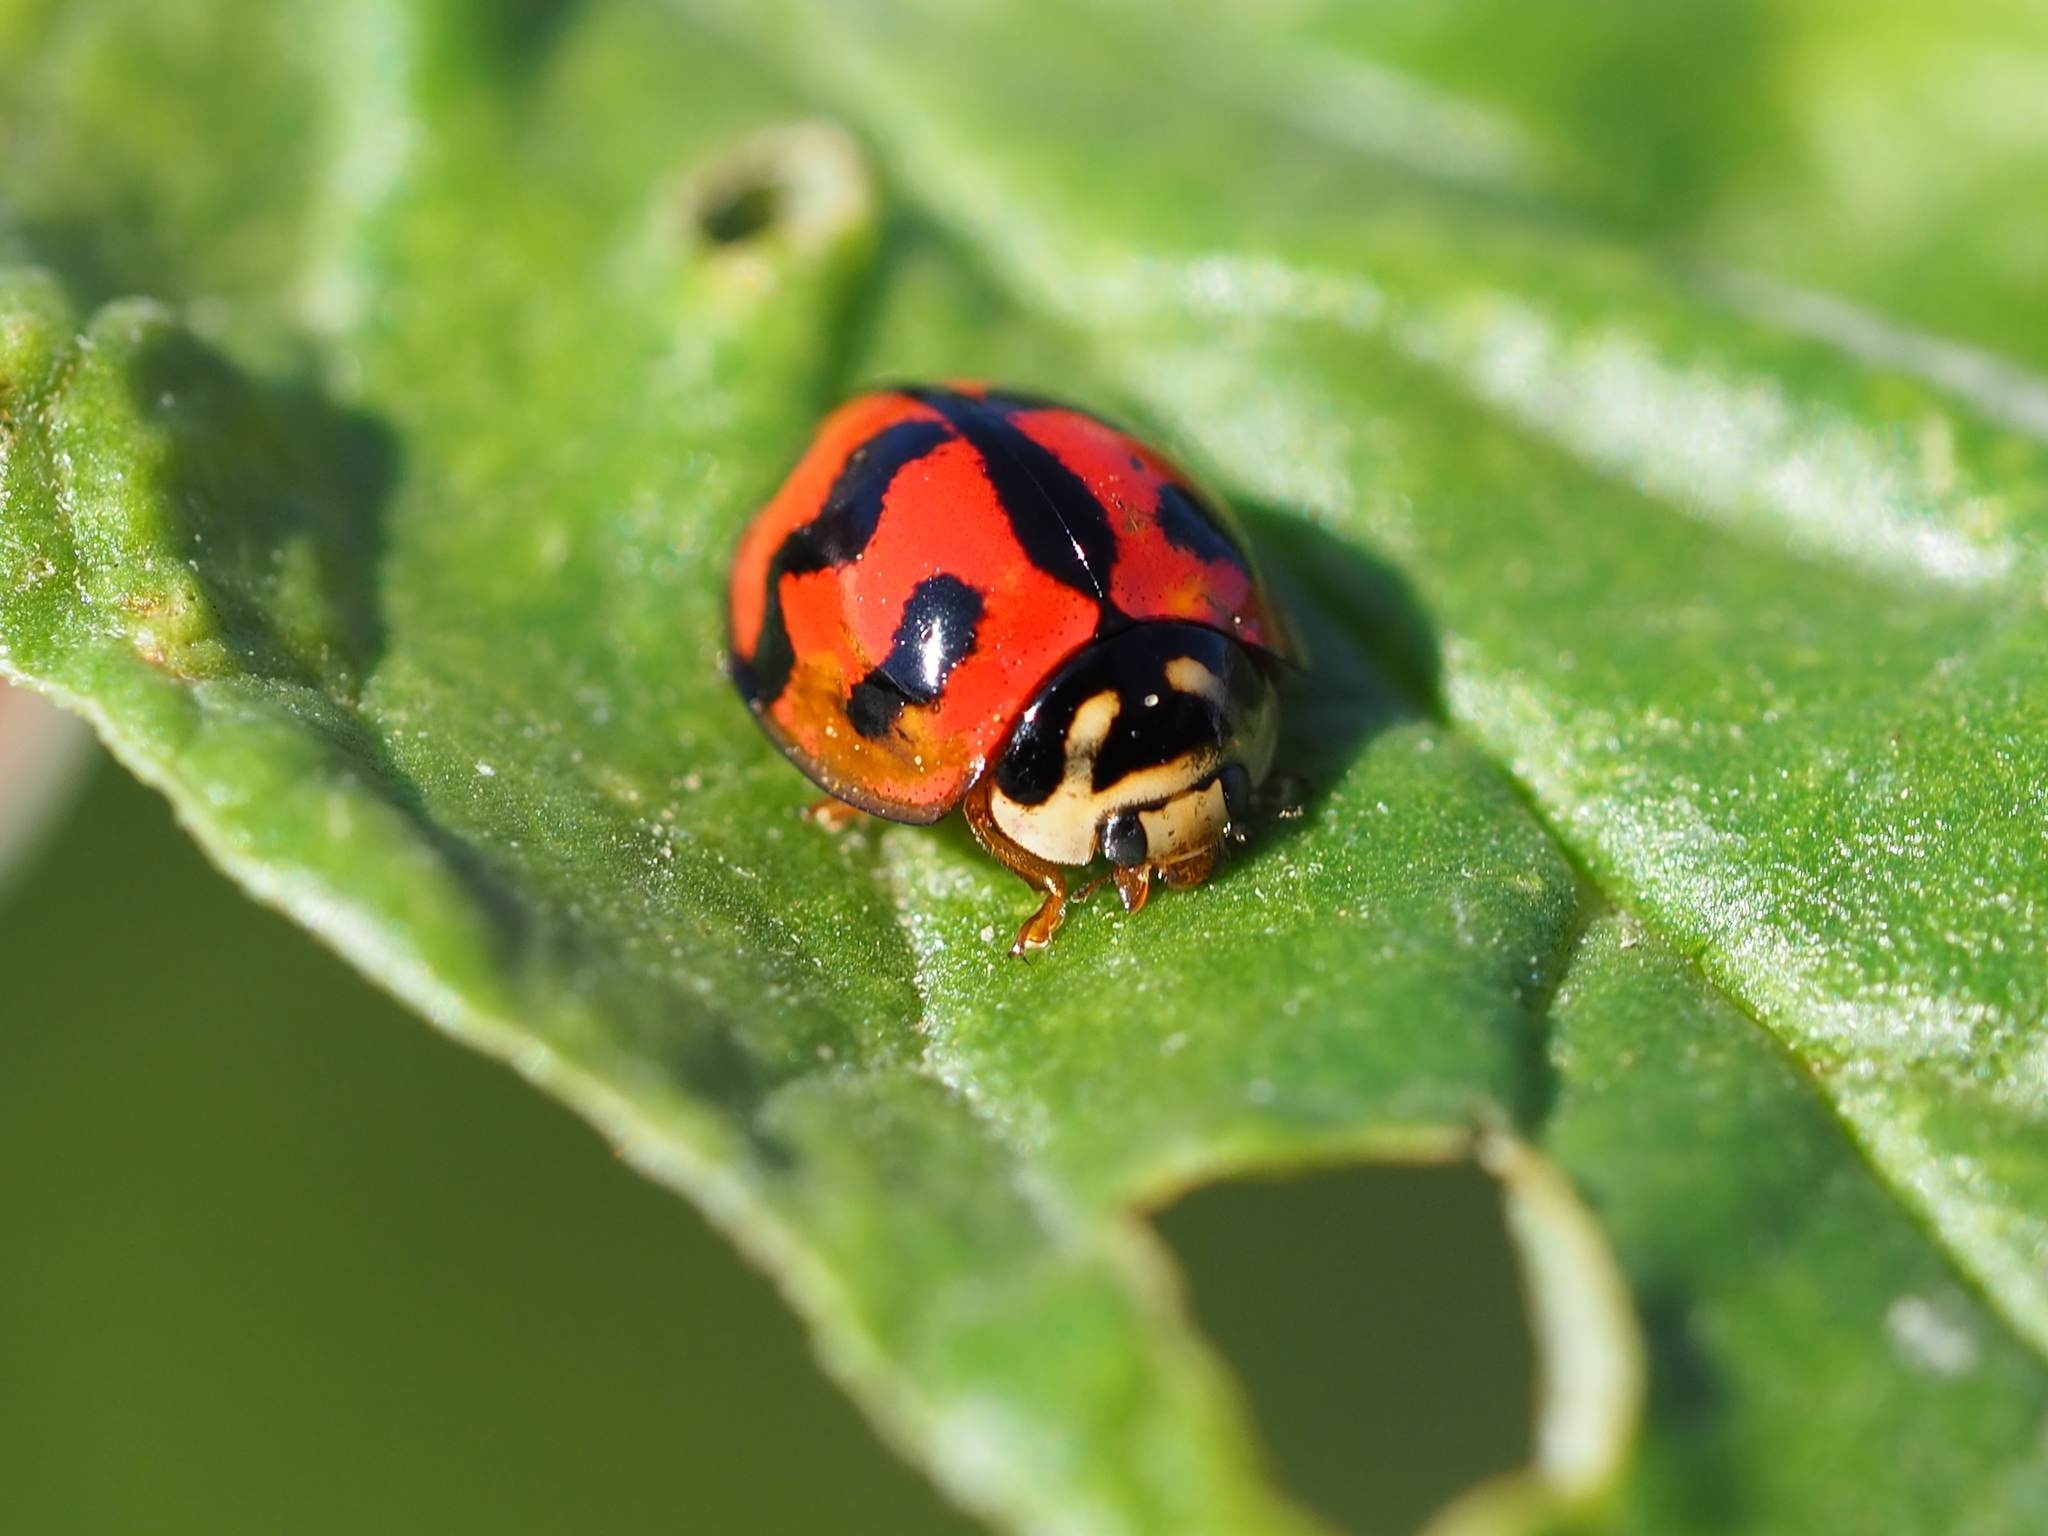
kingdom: Animalia
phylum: Arthropoda
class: Insecta
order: Coleoptera
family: Coccinellidae
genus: Cheilomenes
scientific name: Cheilomenes sexmaculata
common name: Ladybird beetle
